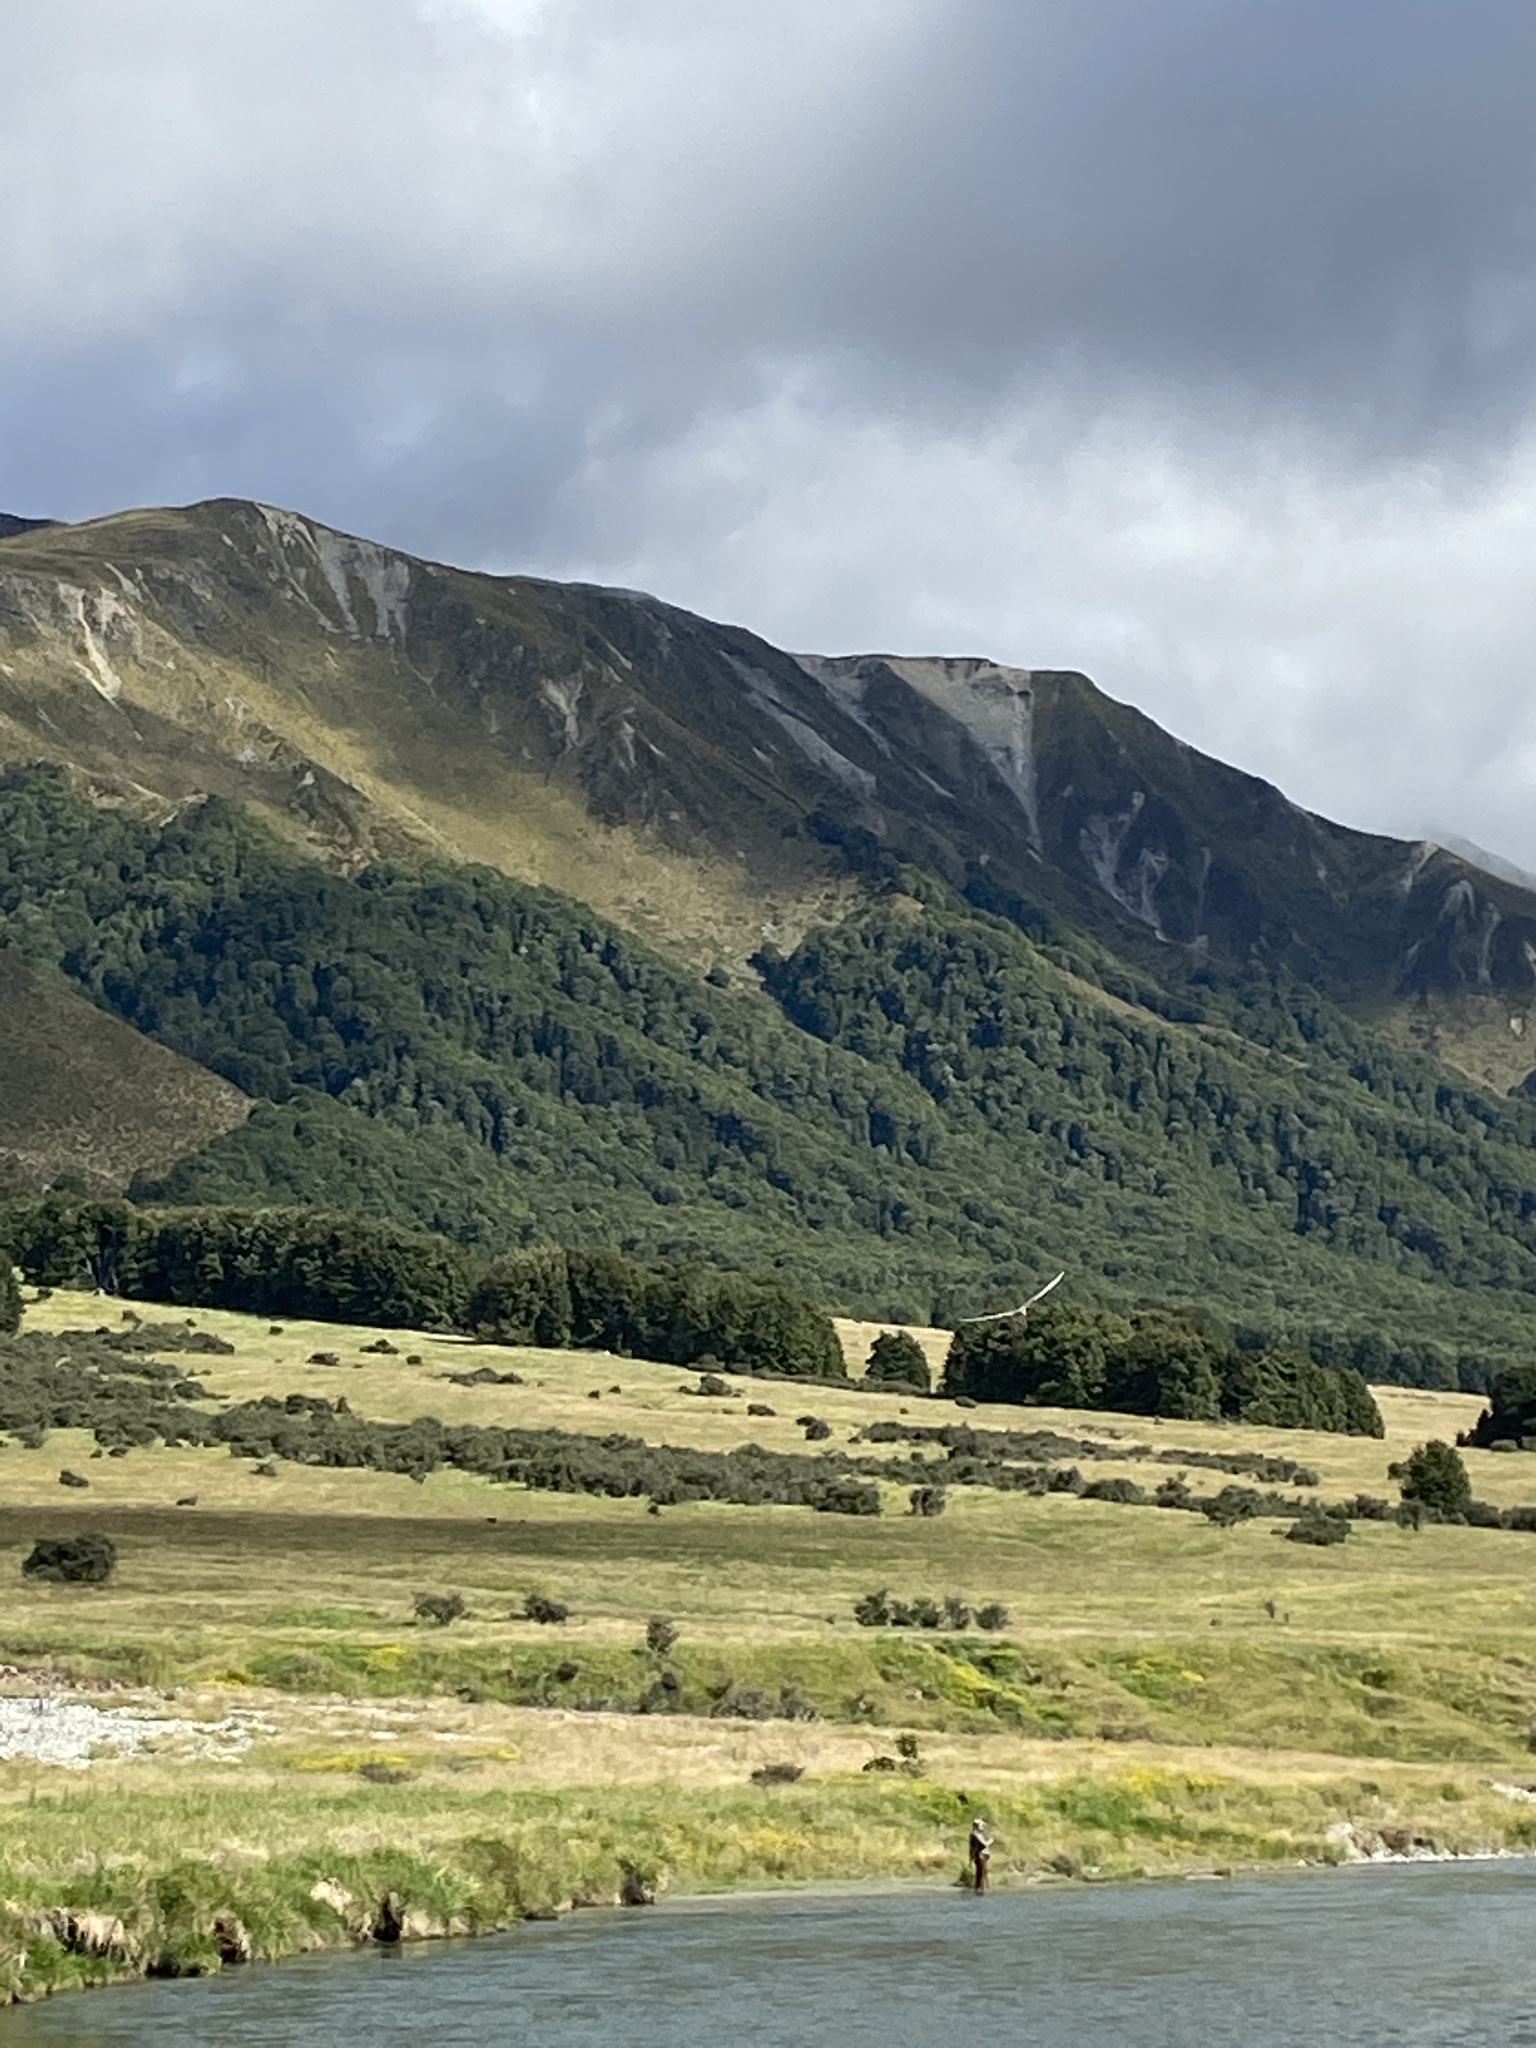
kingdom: Animalia
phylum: Chordata
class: Aves
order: Charadriiformes
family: Laridae
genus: Chlidonias
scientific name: Chlidonias albostriatus
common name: Black-fronted tern
